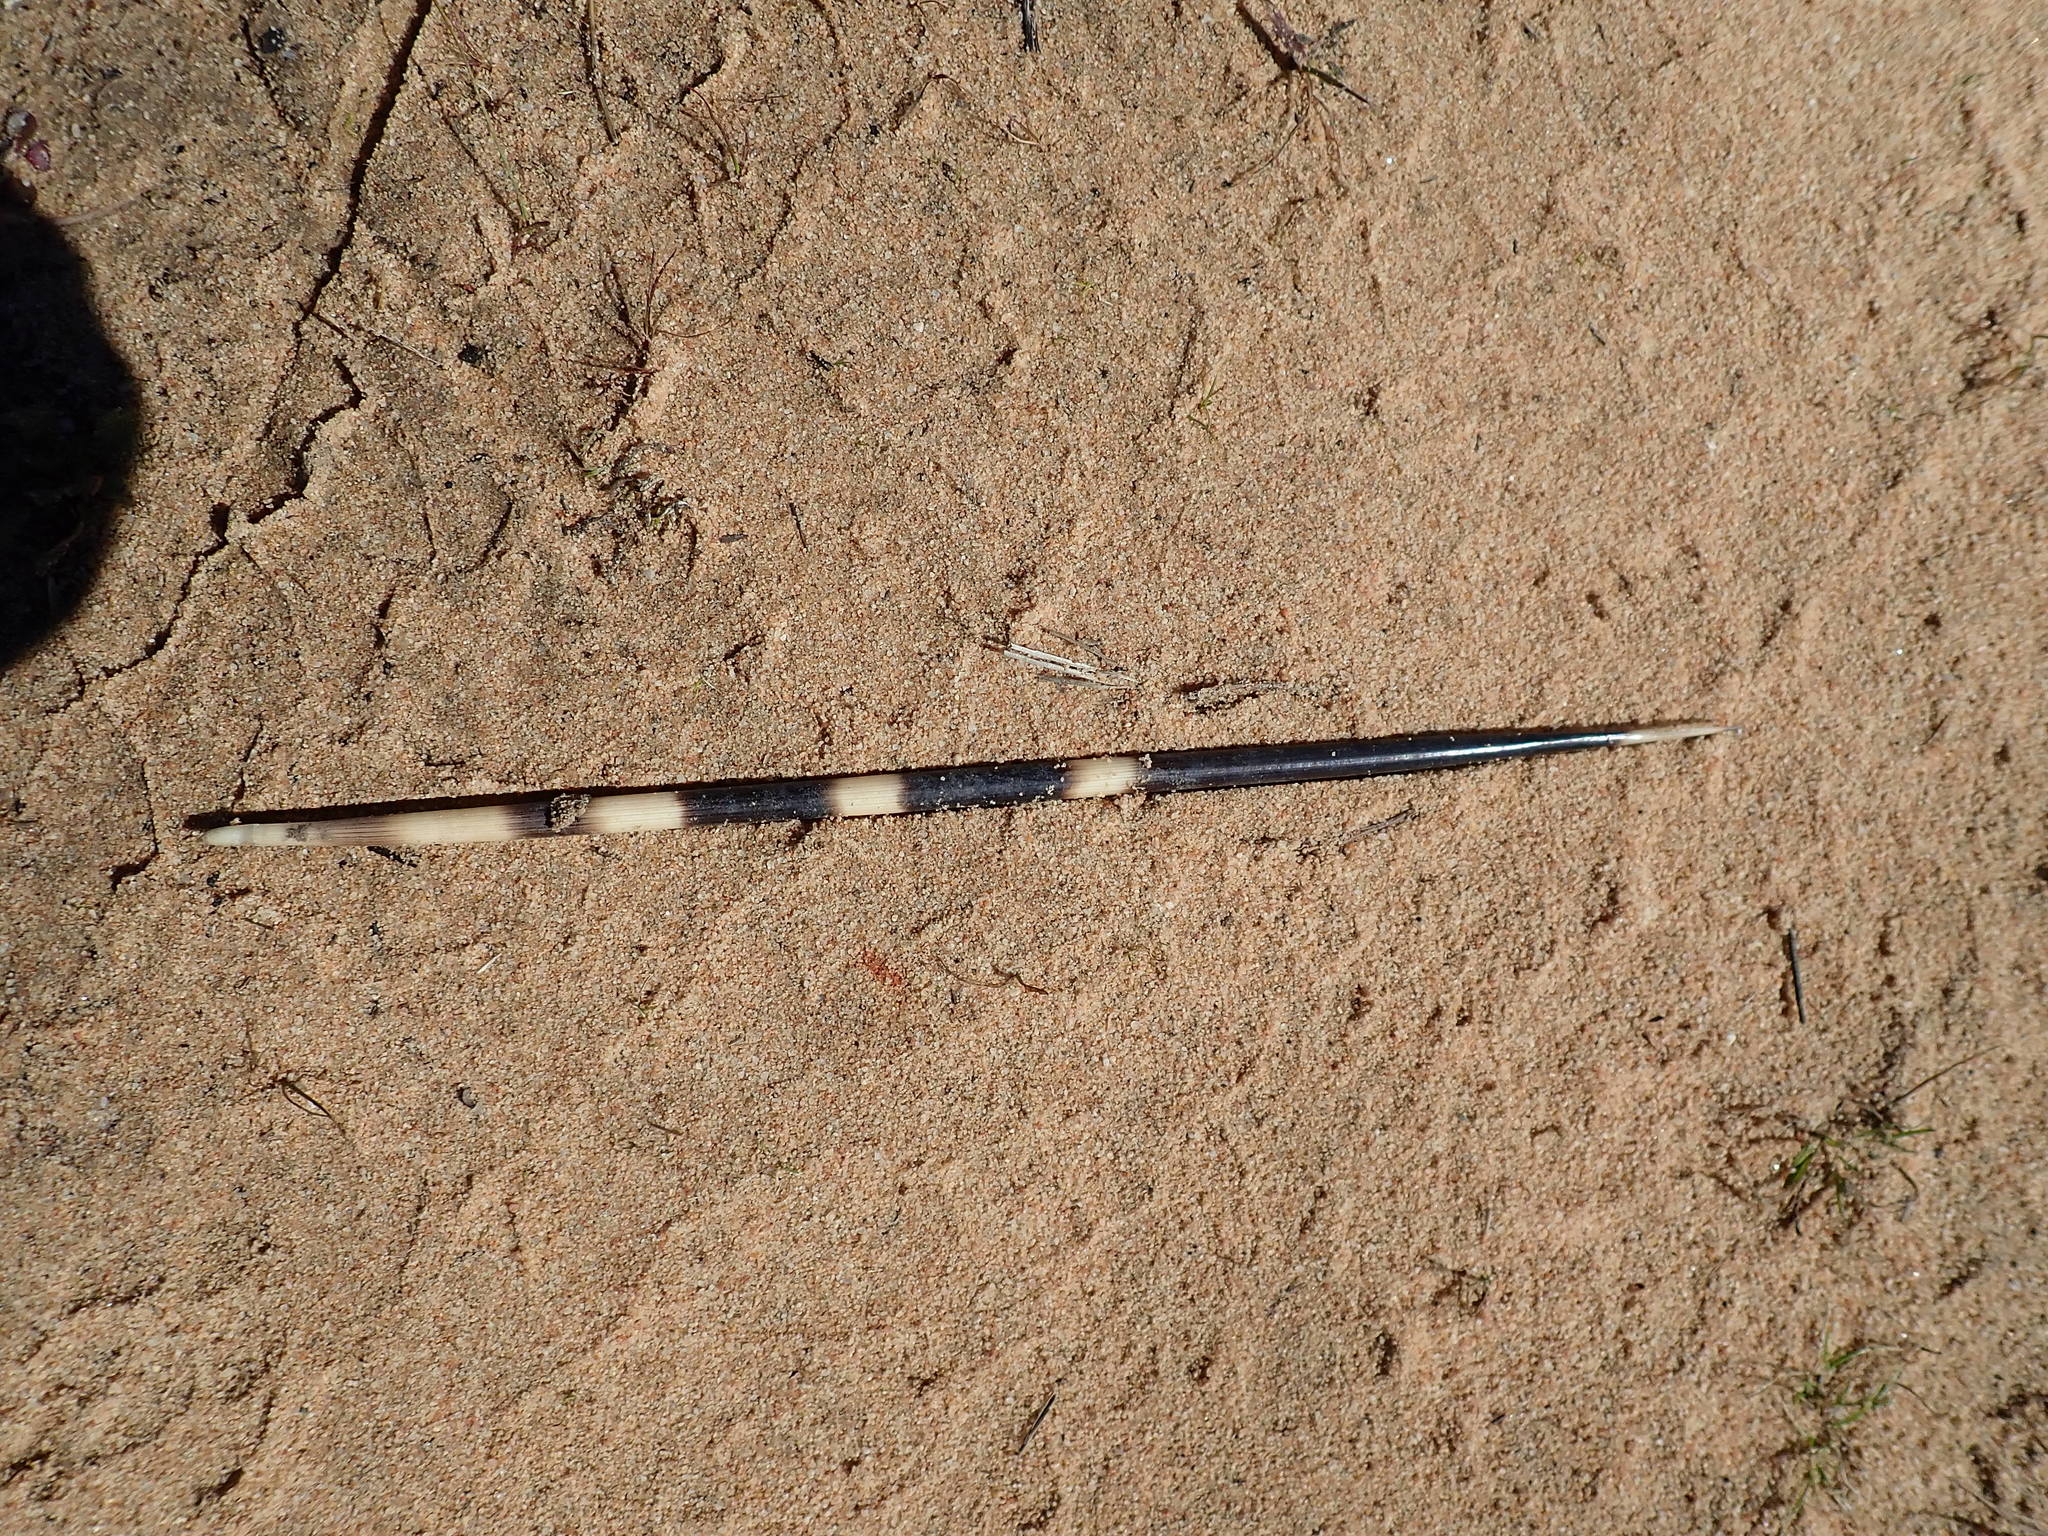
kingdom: Animalia
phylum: Chordata
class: Mammalia
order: Rodentia
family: Hystricidae
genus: Hystrix
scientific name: Hystrix africaeaustralis
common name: Cape porcupine
